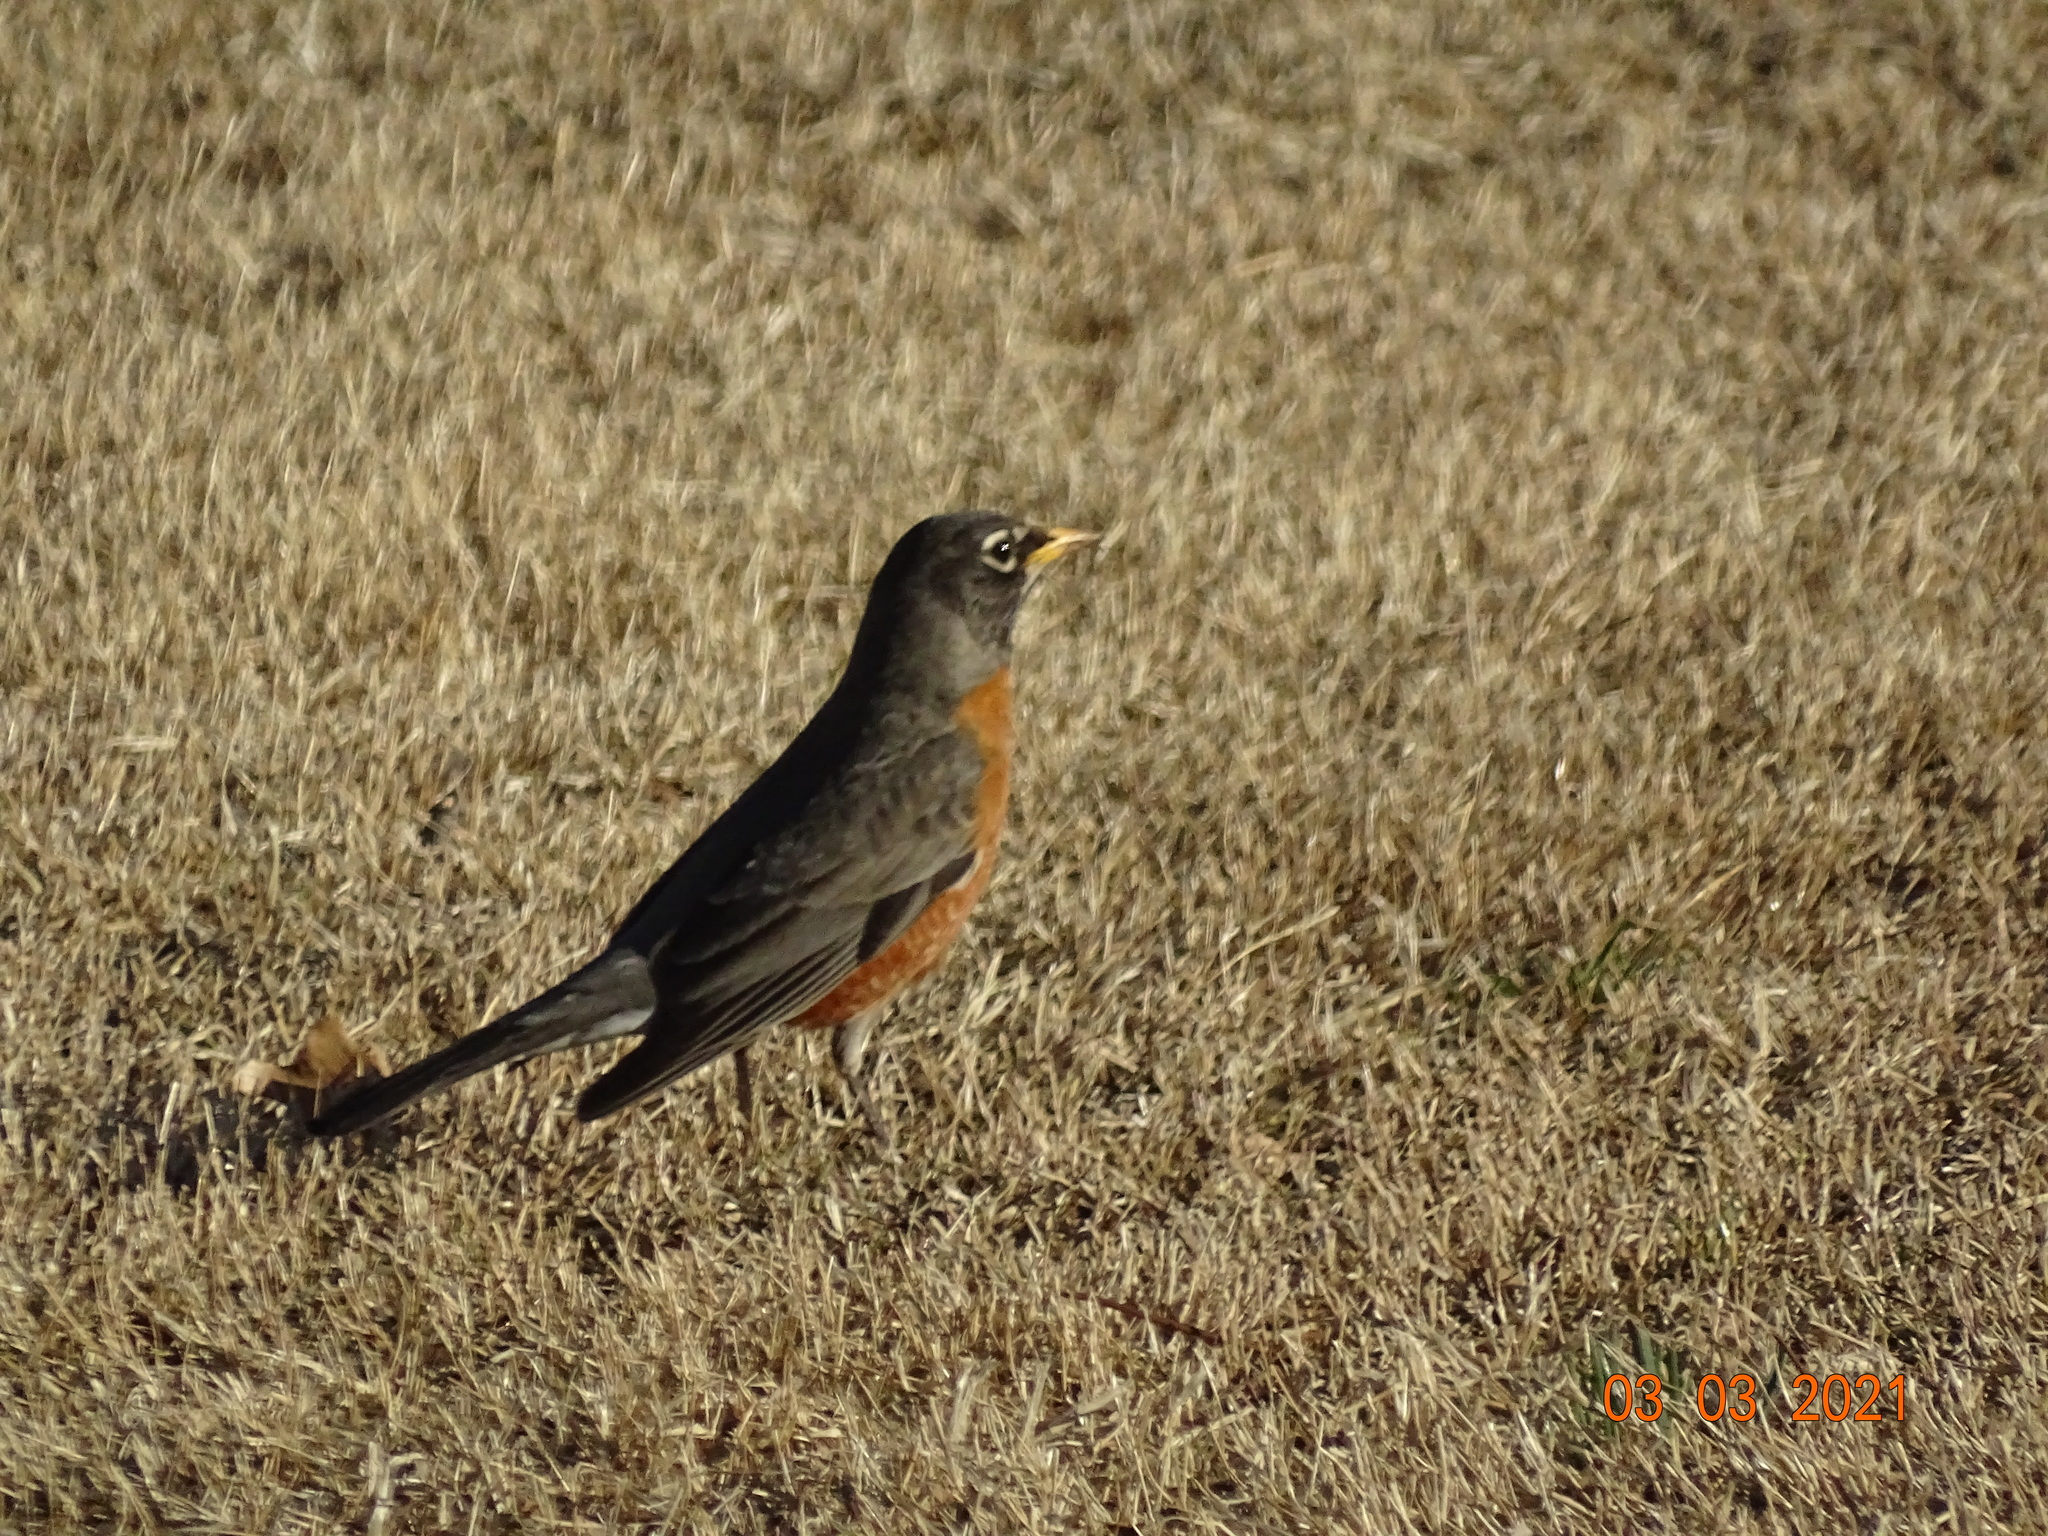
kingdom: Animalia
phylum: Chordata
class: Aves
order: Passeriformes
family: Turdidae
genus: Turdus
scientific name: Turdus migratorius
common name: American robin
